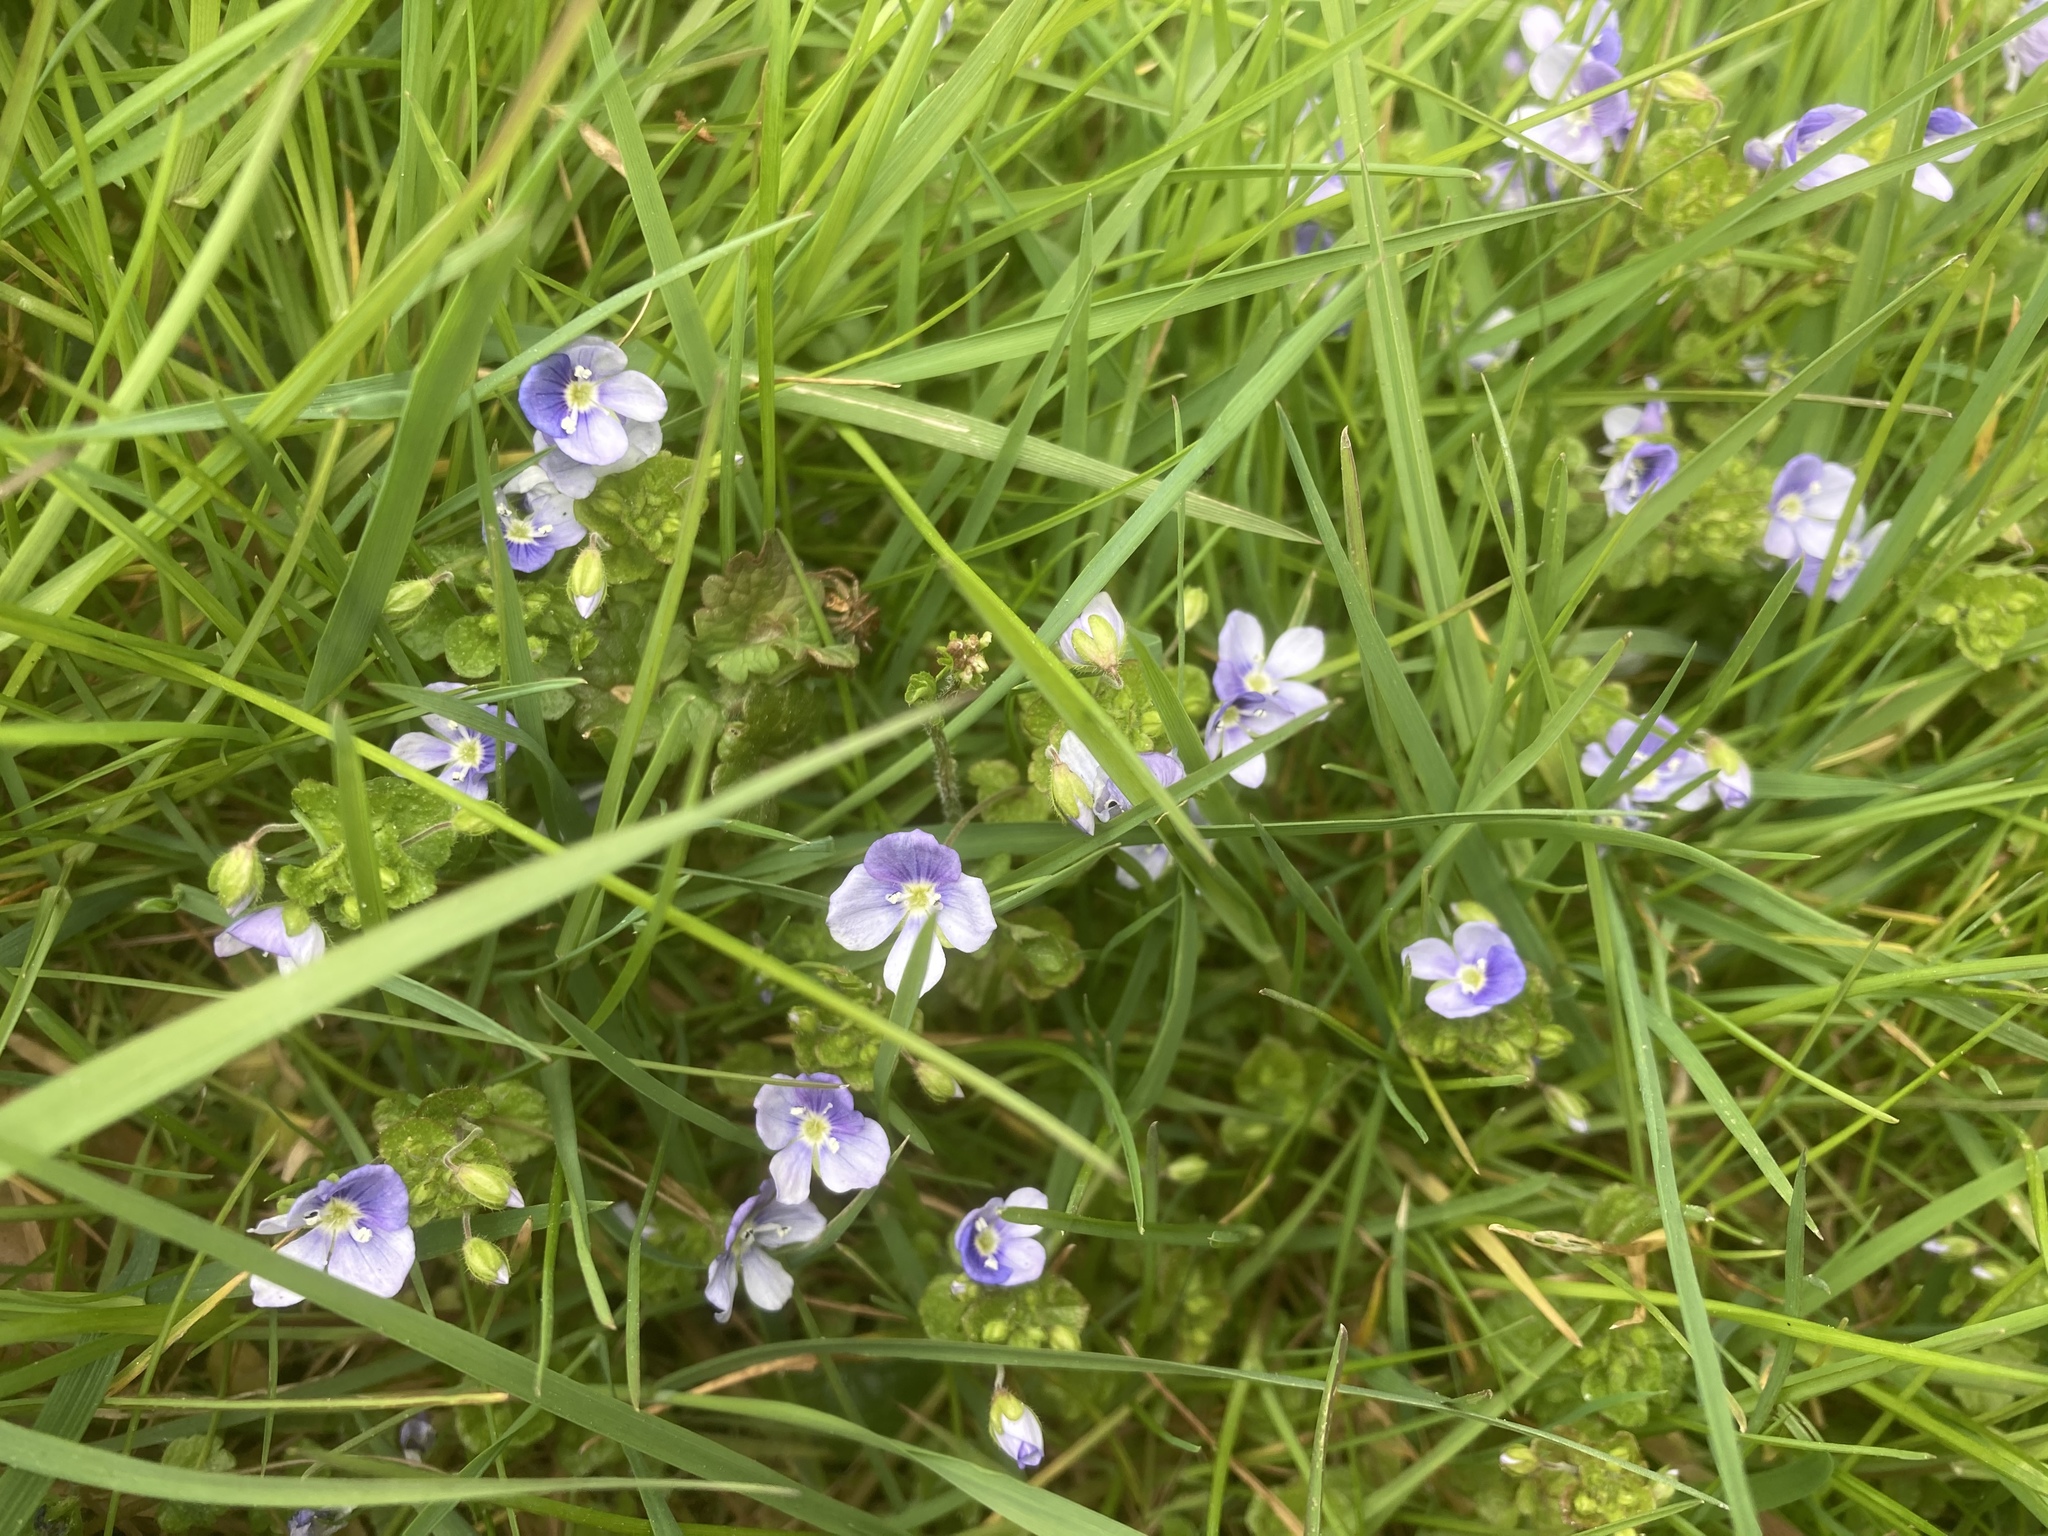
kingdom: Plantae
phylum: Tracheophyta
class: Magnoliopsida
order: Lamiales
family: Plantaginaceae
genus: Veronica
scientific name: Veronica filiformis
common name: Slender speedwell
